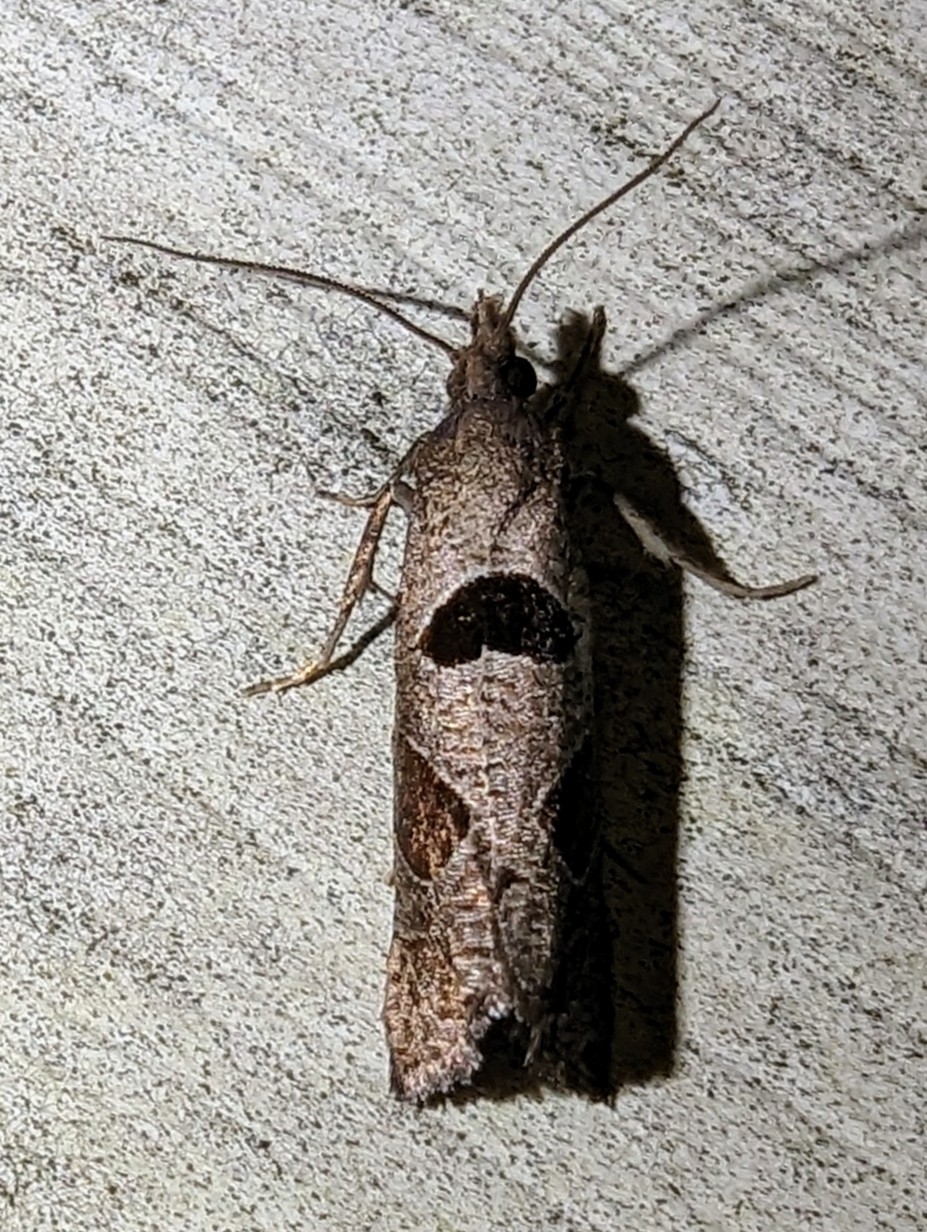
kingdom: Animalia
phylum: Arthropoda
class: Insecta
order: Lepidoptera
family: Tortricidae
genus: Pelochrista
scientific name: Pelochrista dorsisignatana
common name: Triangle-backed pelochrista moth
